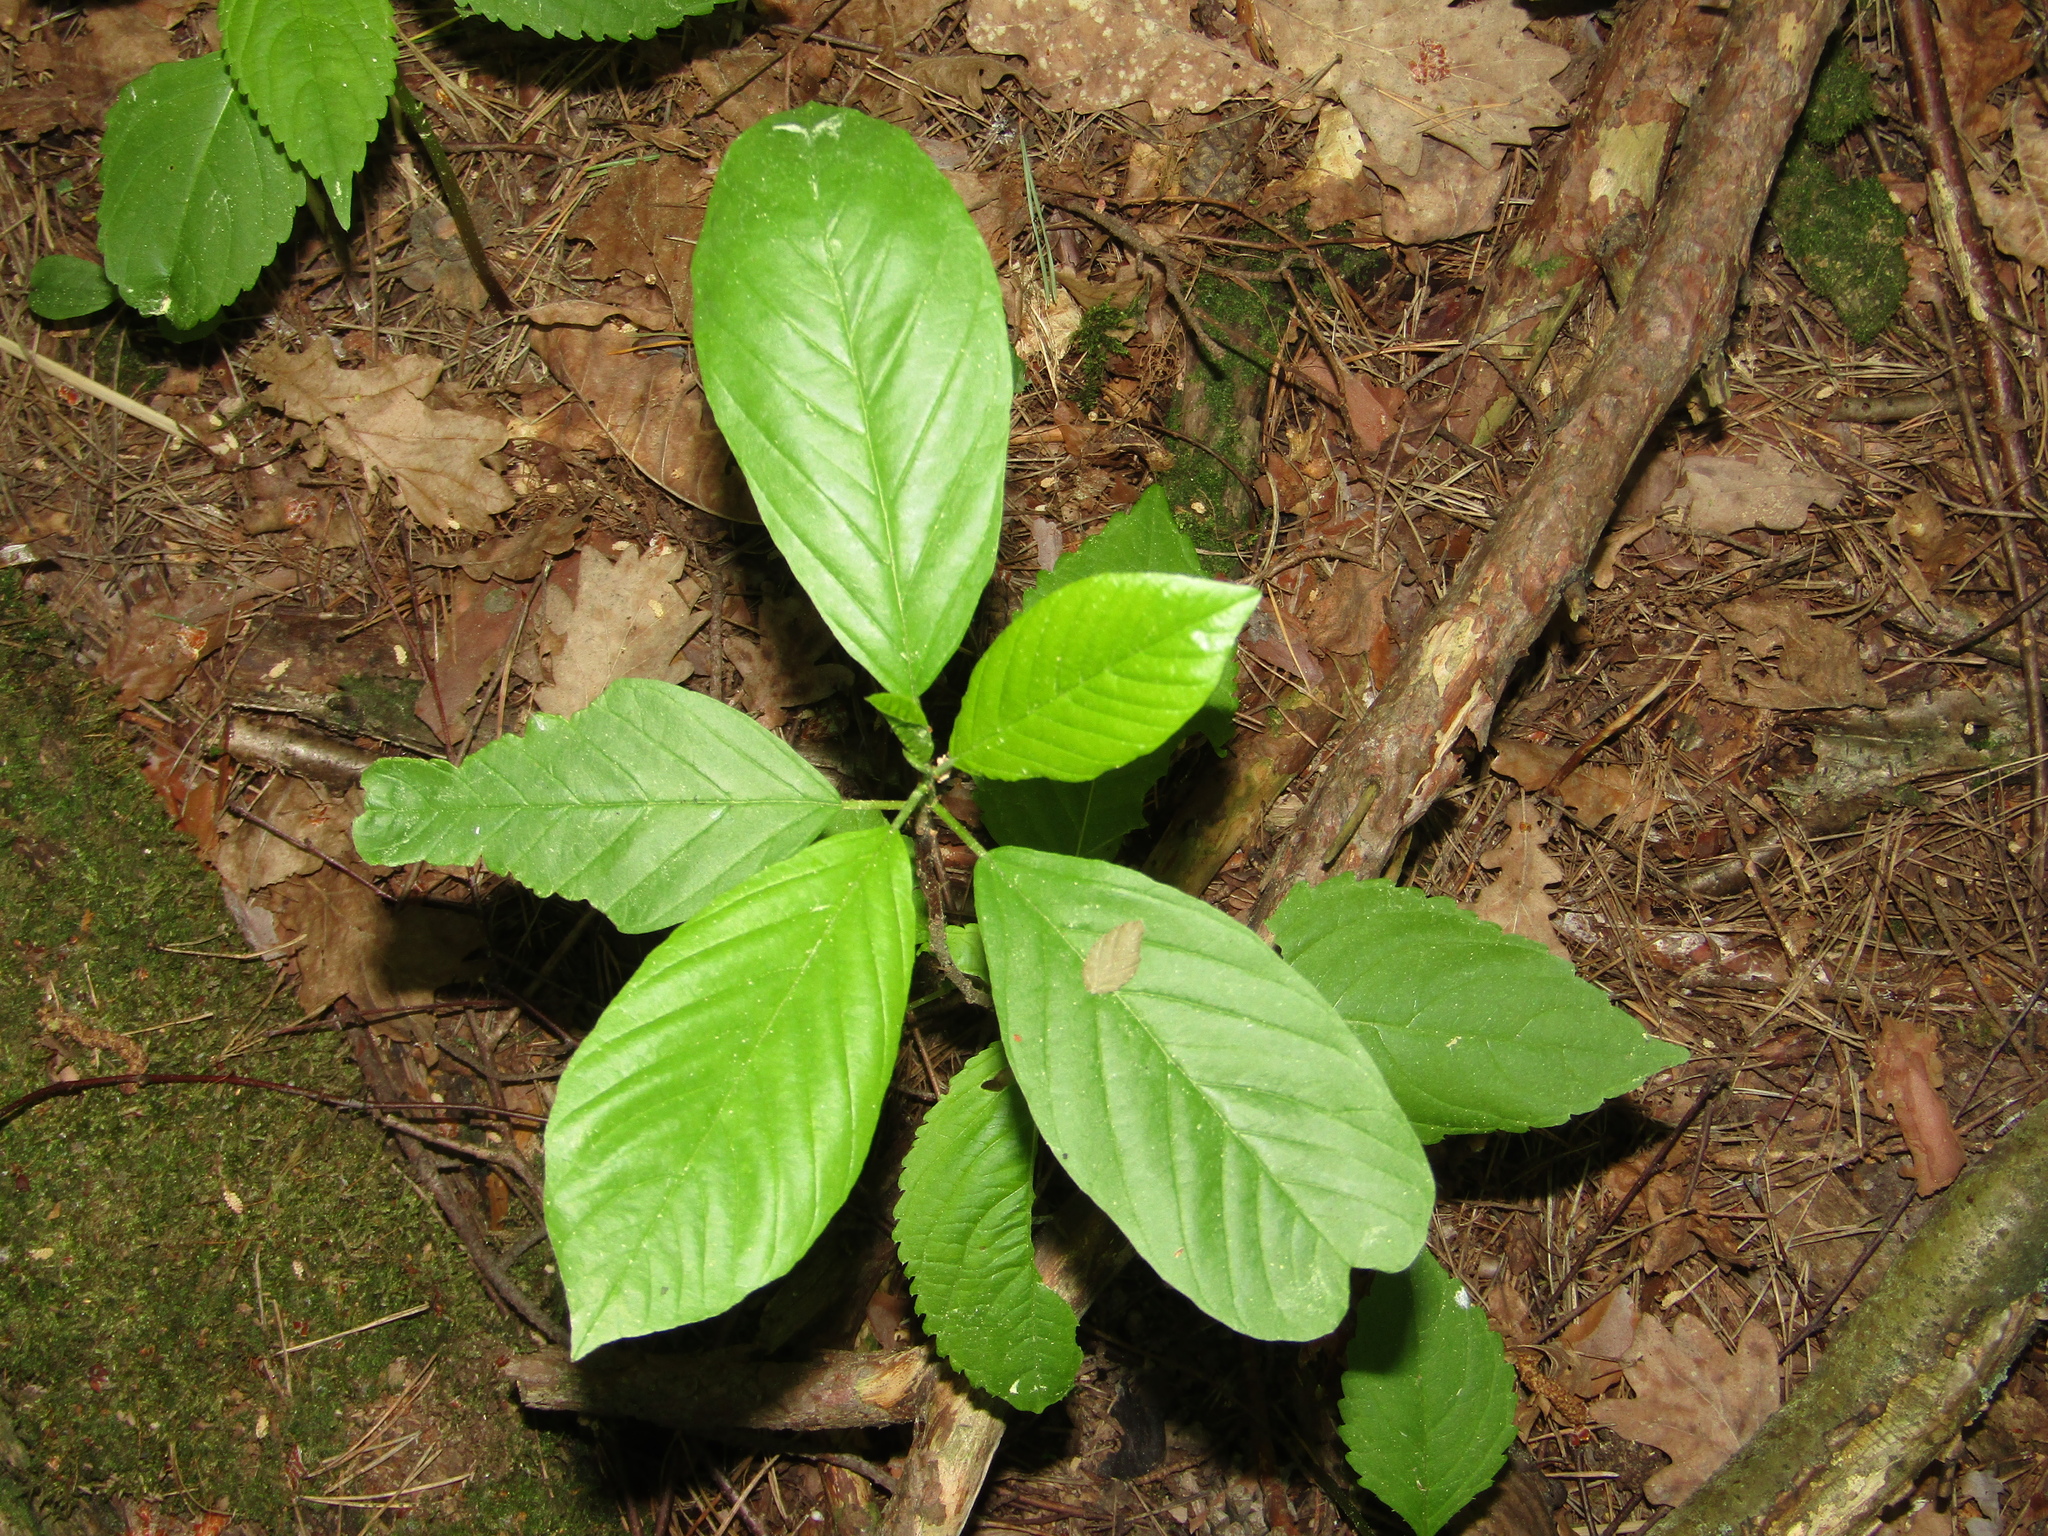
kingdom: Plantae
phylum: Tracheophyta
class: Magnoliopsida
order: Rosales
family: Rhamnaceae
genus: Frangula
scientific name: Frangula alnus
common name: Alder buckthorn
